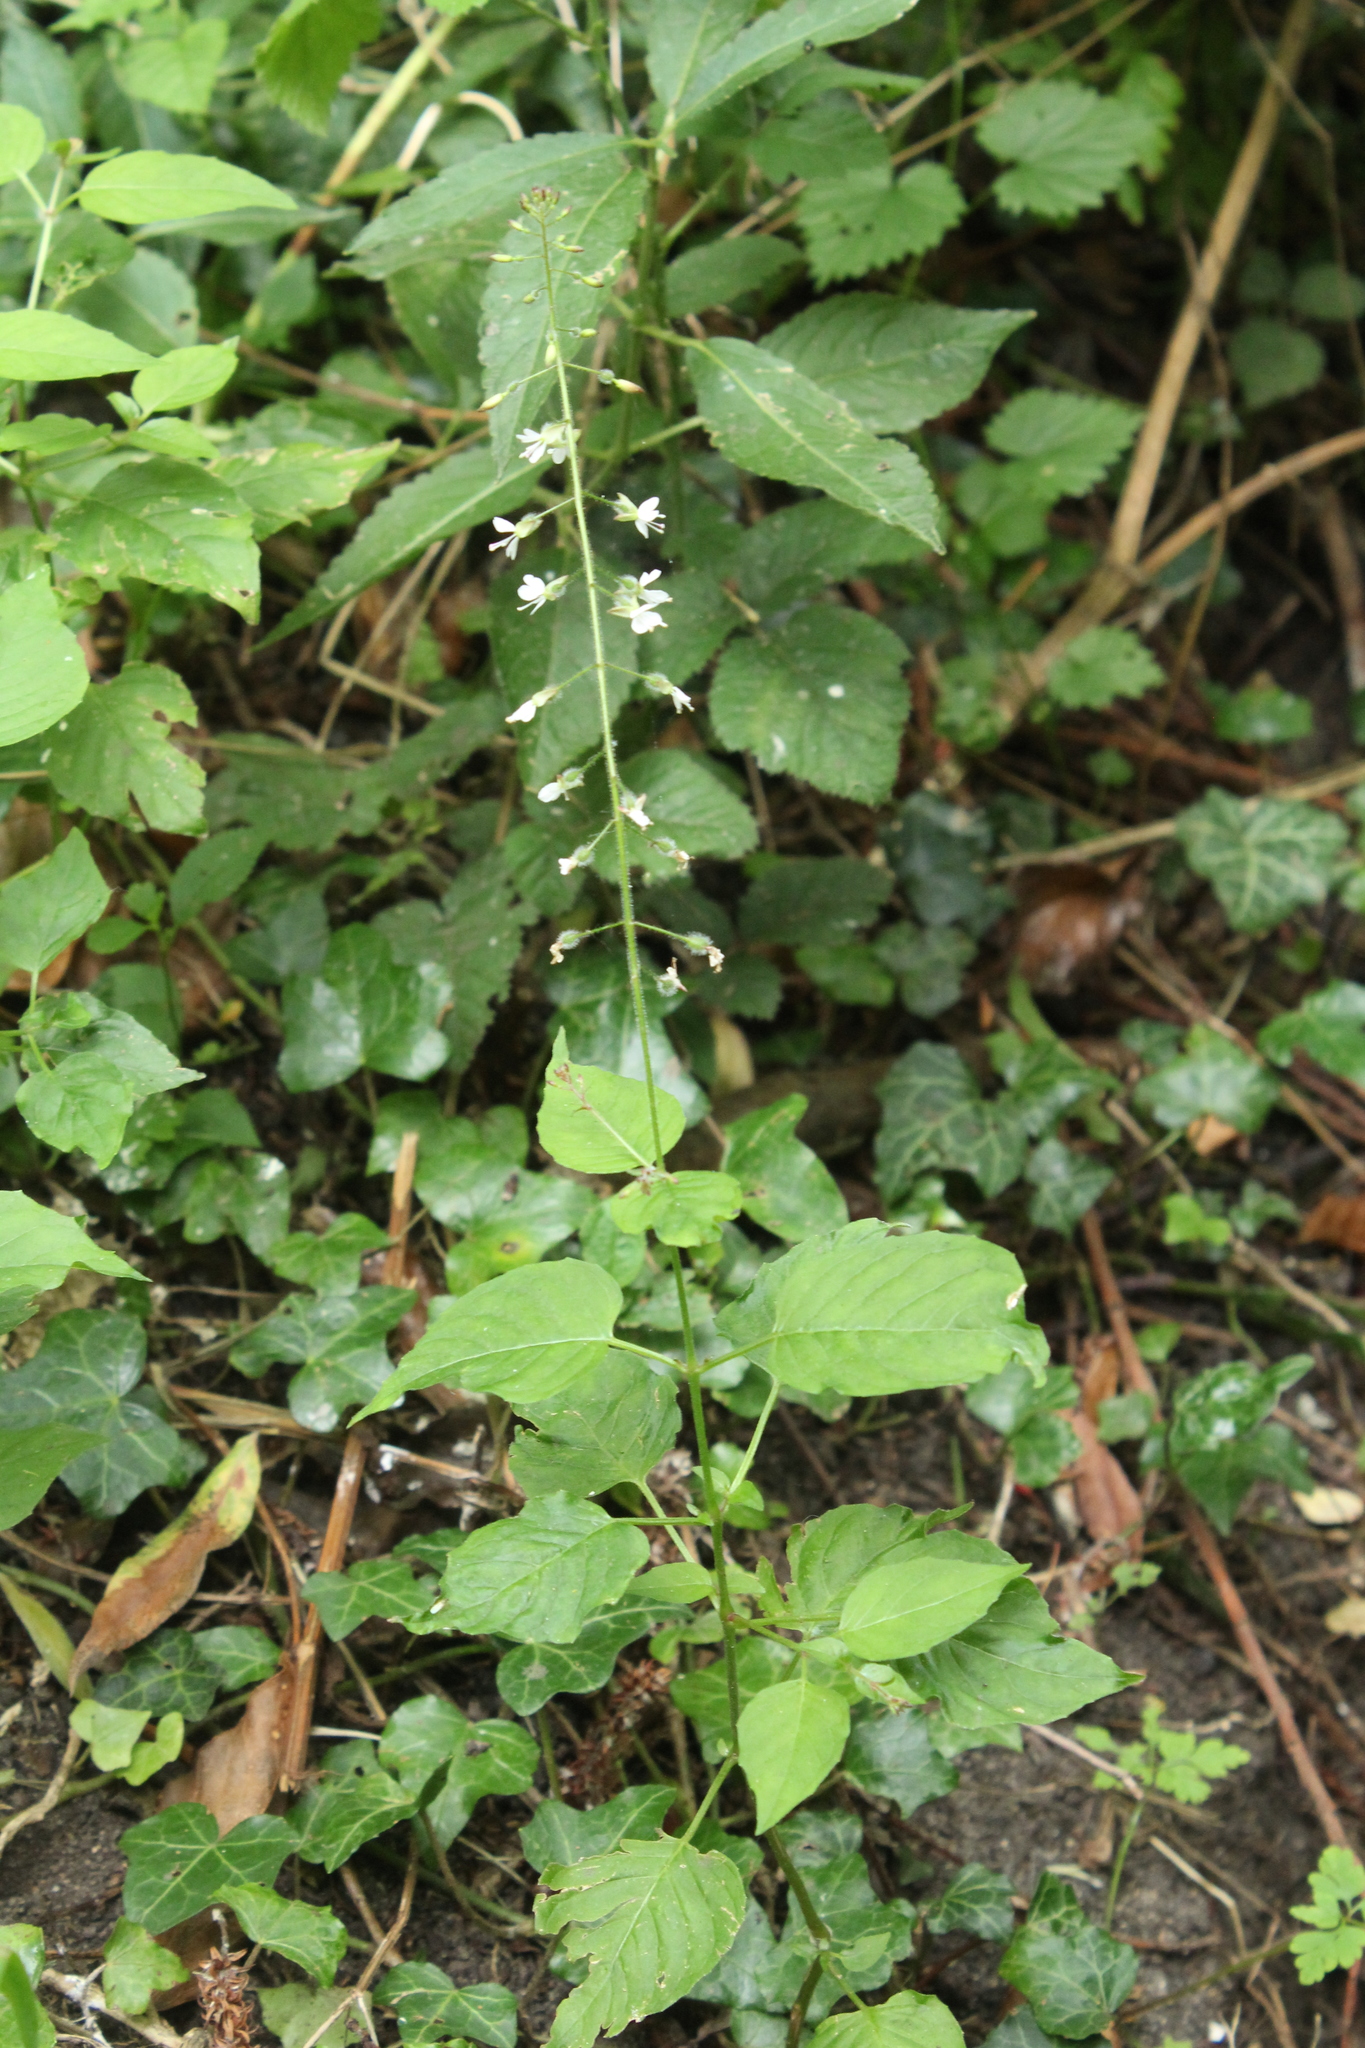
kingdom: Plantae
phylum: Tracheophyta
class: Magnoliopsida
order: Myrtales
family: Onagraceae
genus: Circaea
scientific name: Circaea lutetiana
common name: Enchanter's-nightshade
